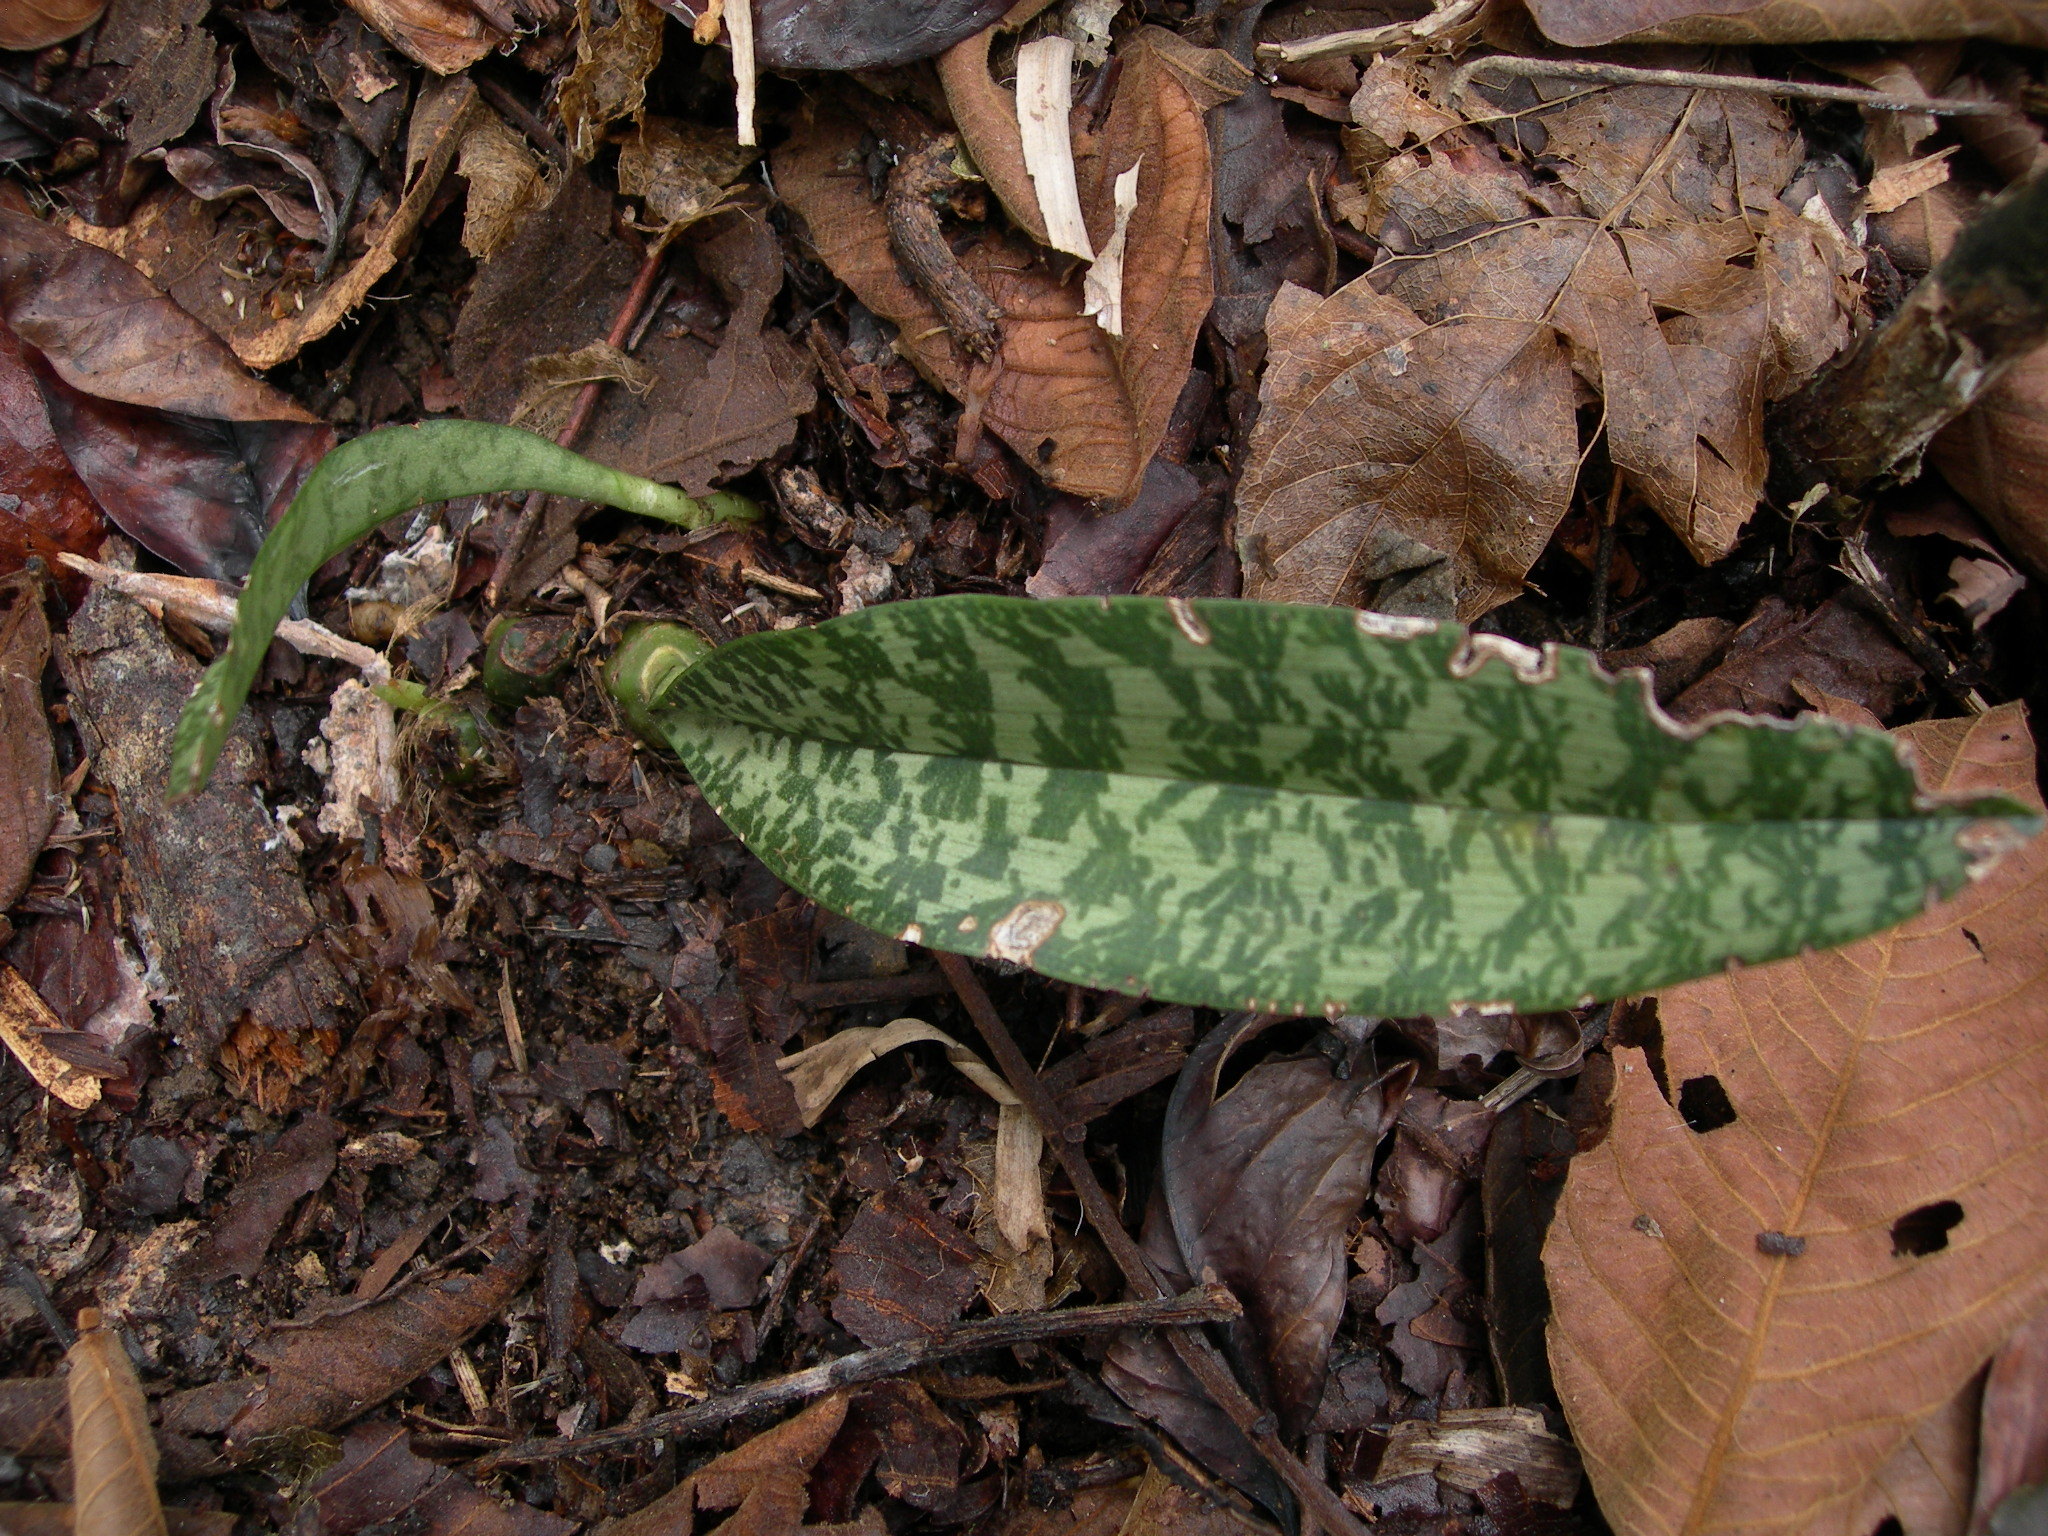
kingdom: Plantae
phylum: Tracheophyta
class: Liliopsida
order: Asparagales
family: Orchidaceae
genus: Eulophia
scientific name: Eulophia maculata
